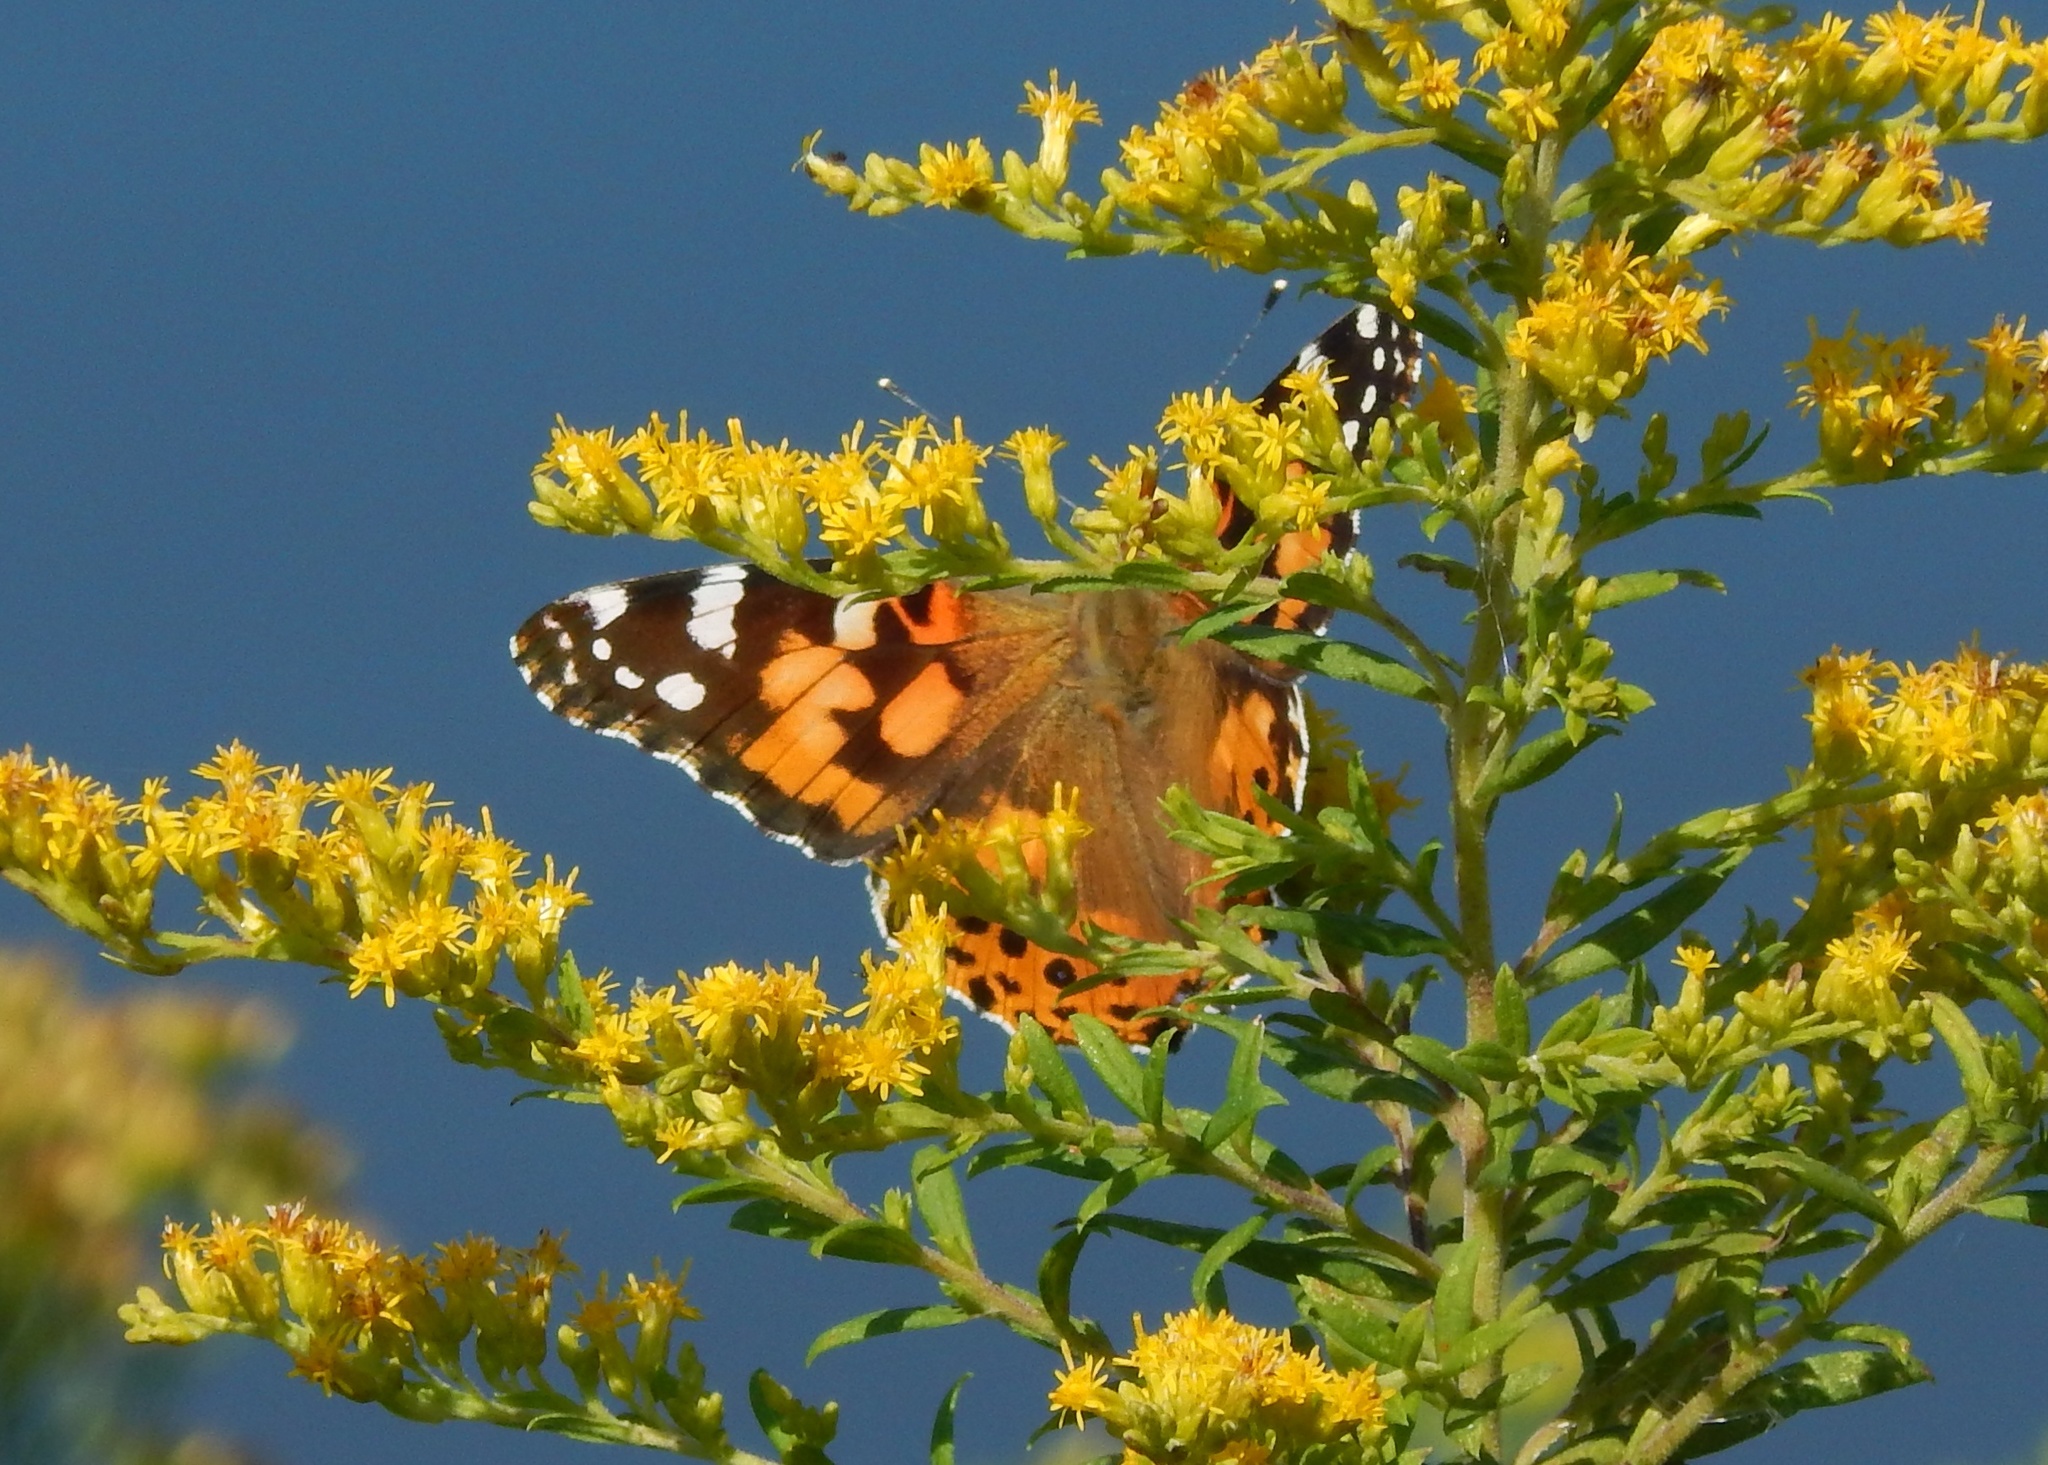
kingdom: Animalia
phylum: Arthropoda
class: Insecta
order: Lepidoptera
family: Nymphalidae
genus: Vanessa
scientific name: Vanessa cardui
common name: Painted lady
